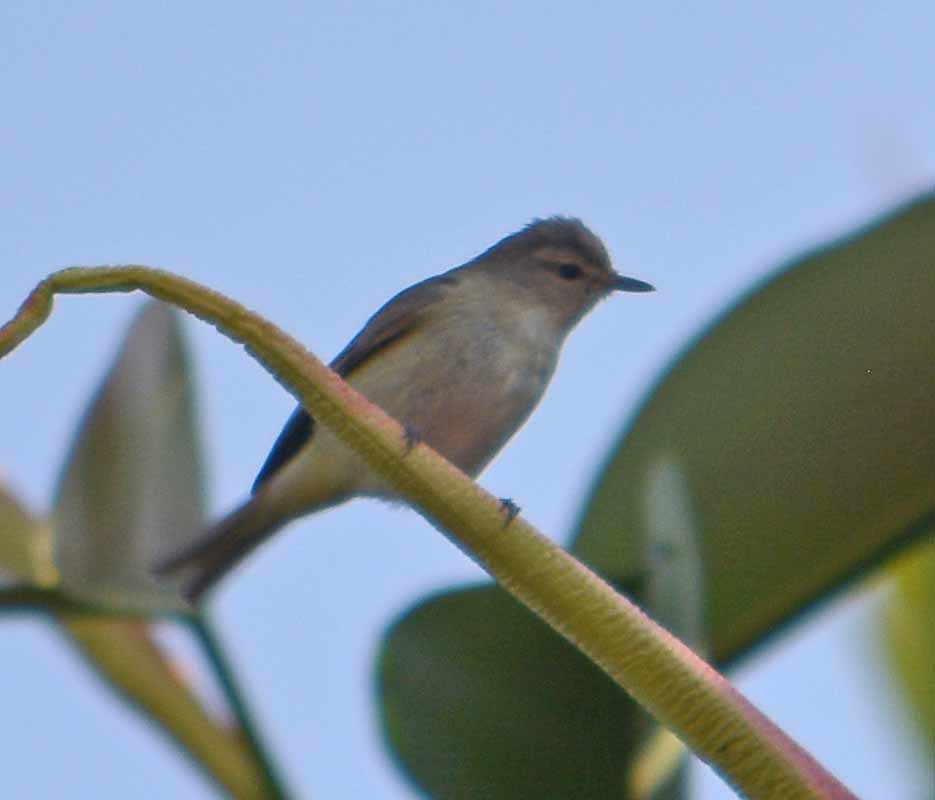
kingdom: Animalia
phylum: Chordata
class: Aves
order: Passeriformes
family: Vireonidae
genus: Vireo
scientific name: Vireo gilvus
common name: Warbling vireo
